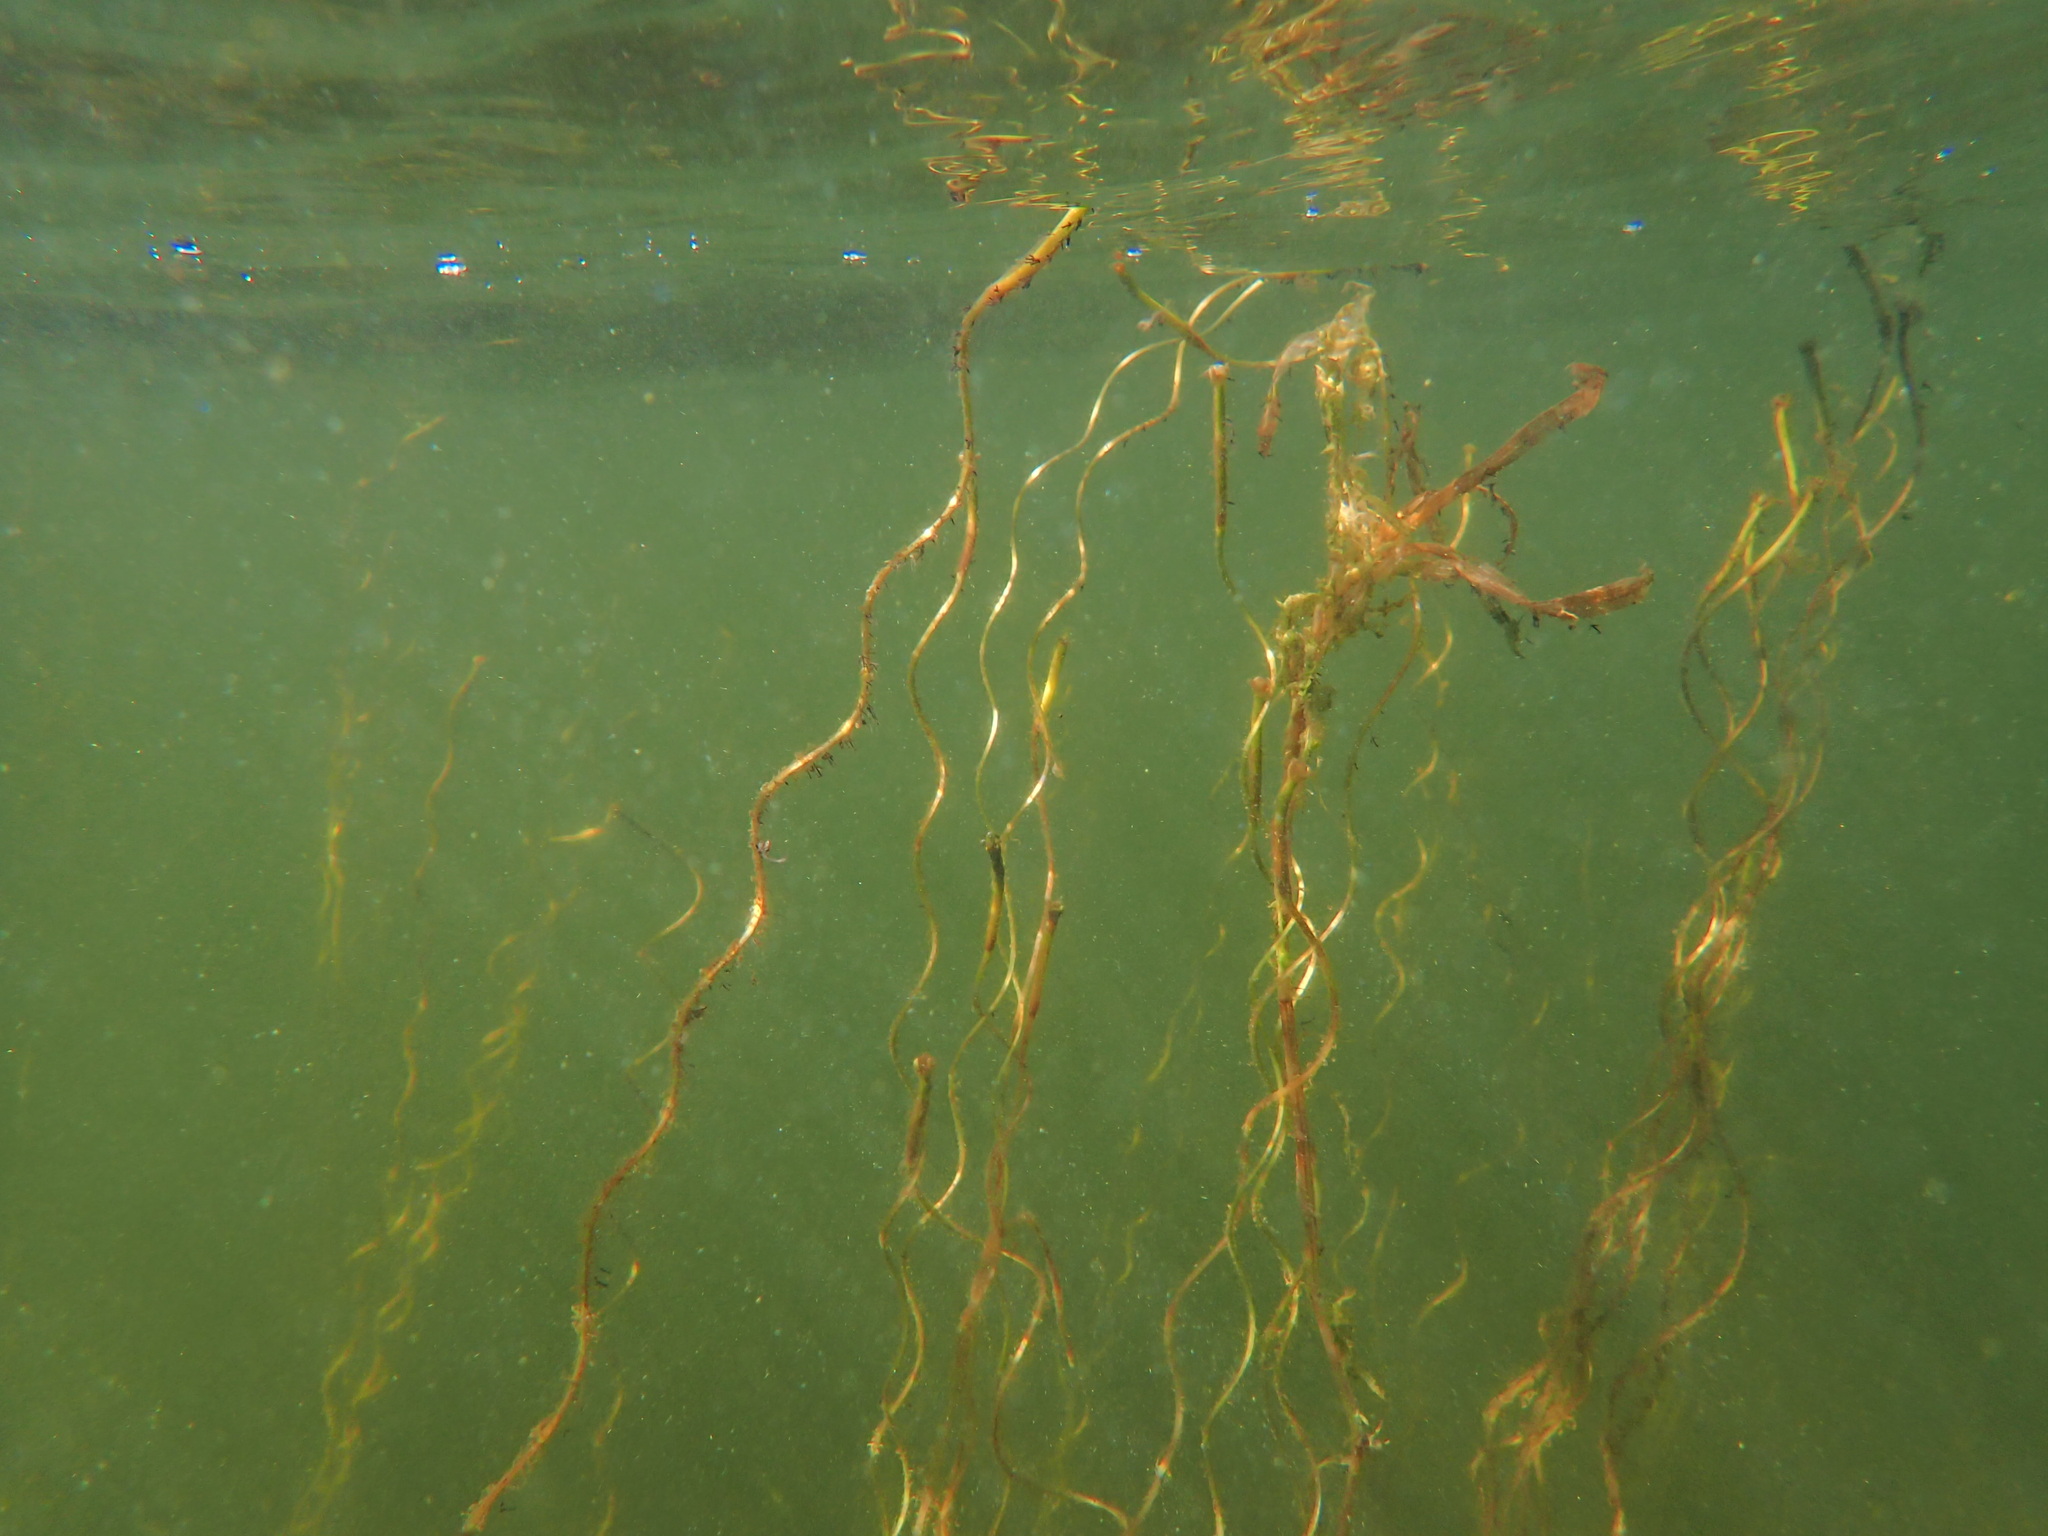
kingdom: Plantae
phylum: Tracheophyta
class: Liliopsida
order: Alismatales
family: Hydrocharitaceae
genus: Vallisneria
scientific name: Vallisneria americana
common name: American eelgrass
